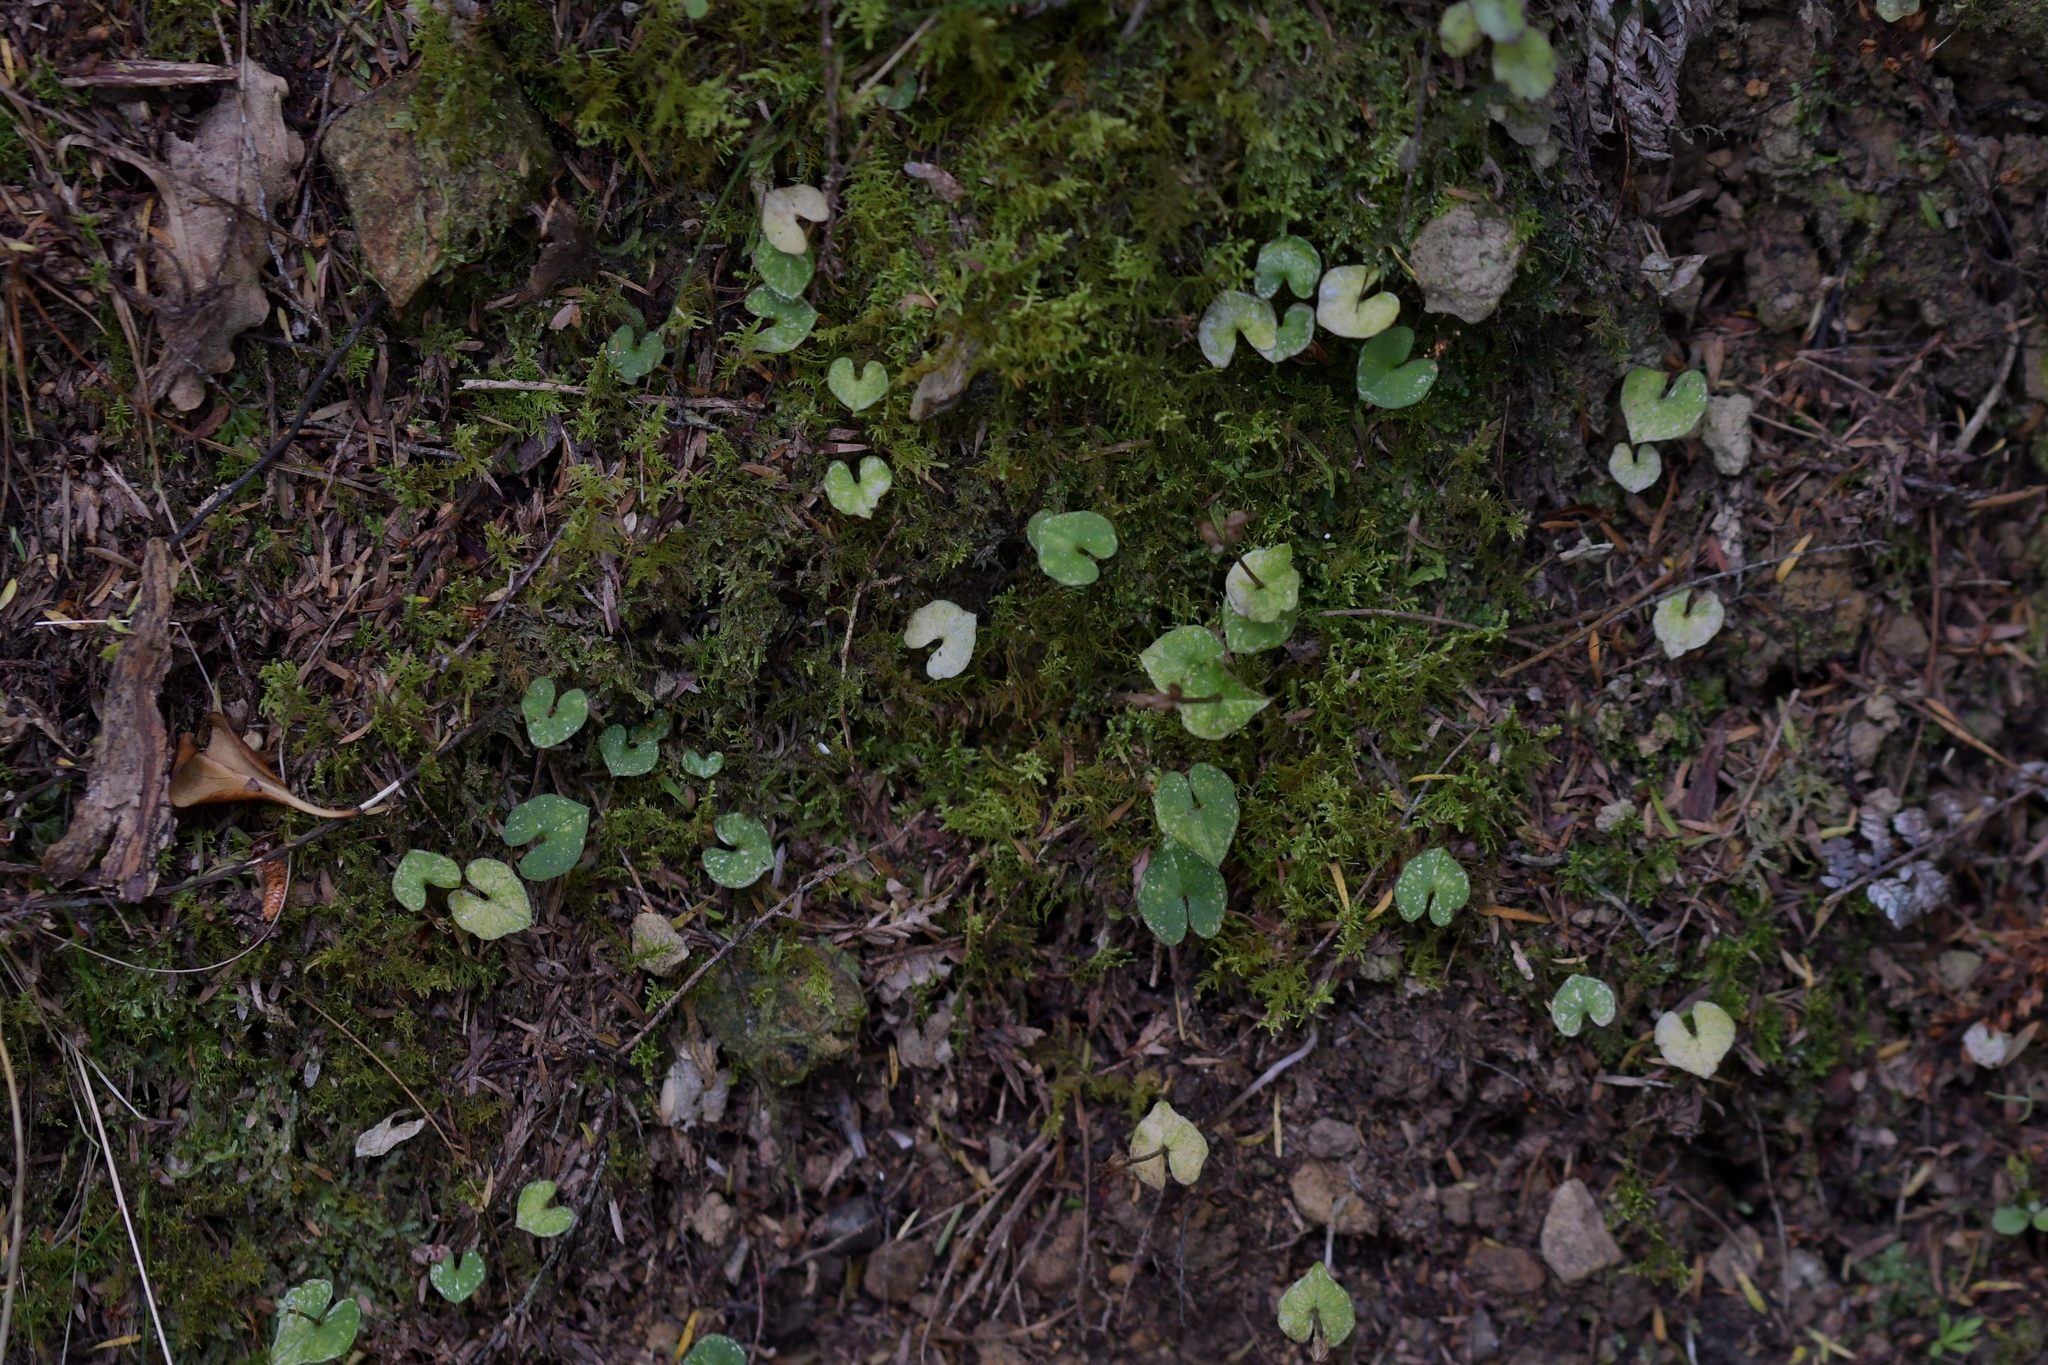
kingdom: Plantae
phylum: Tracheophyta
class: Liliopsida
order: Asparagales
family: Orchidaceae
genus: Acianthus
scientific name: Acianthus sinclairii
